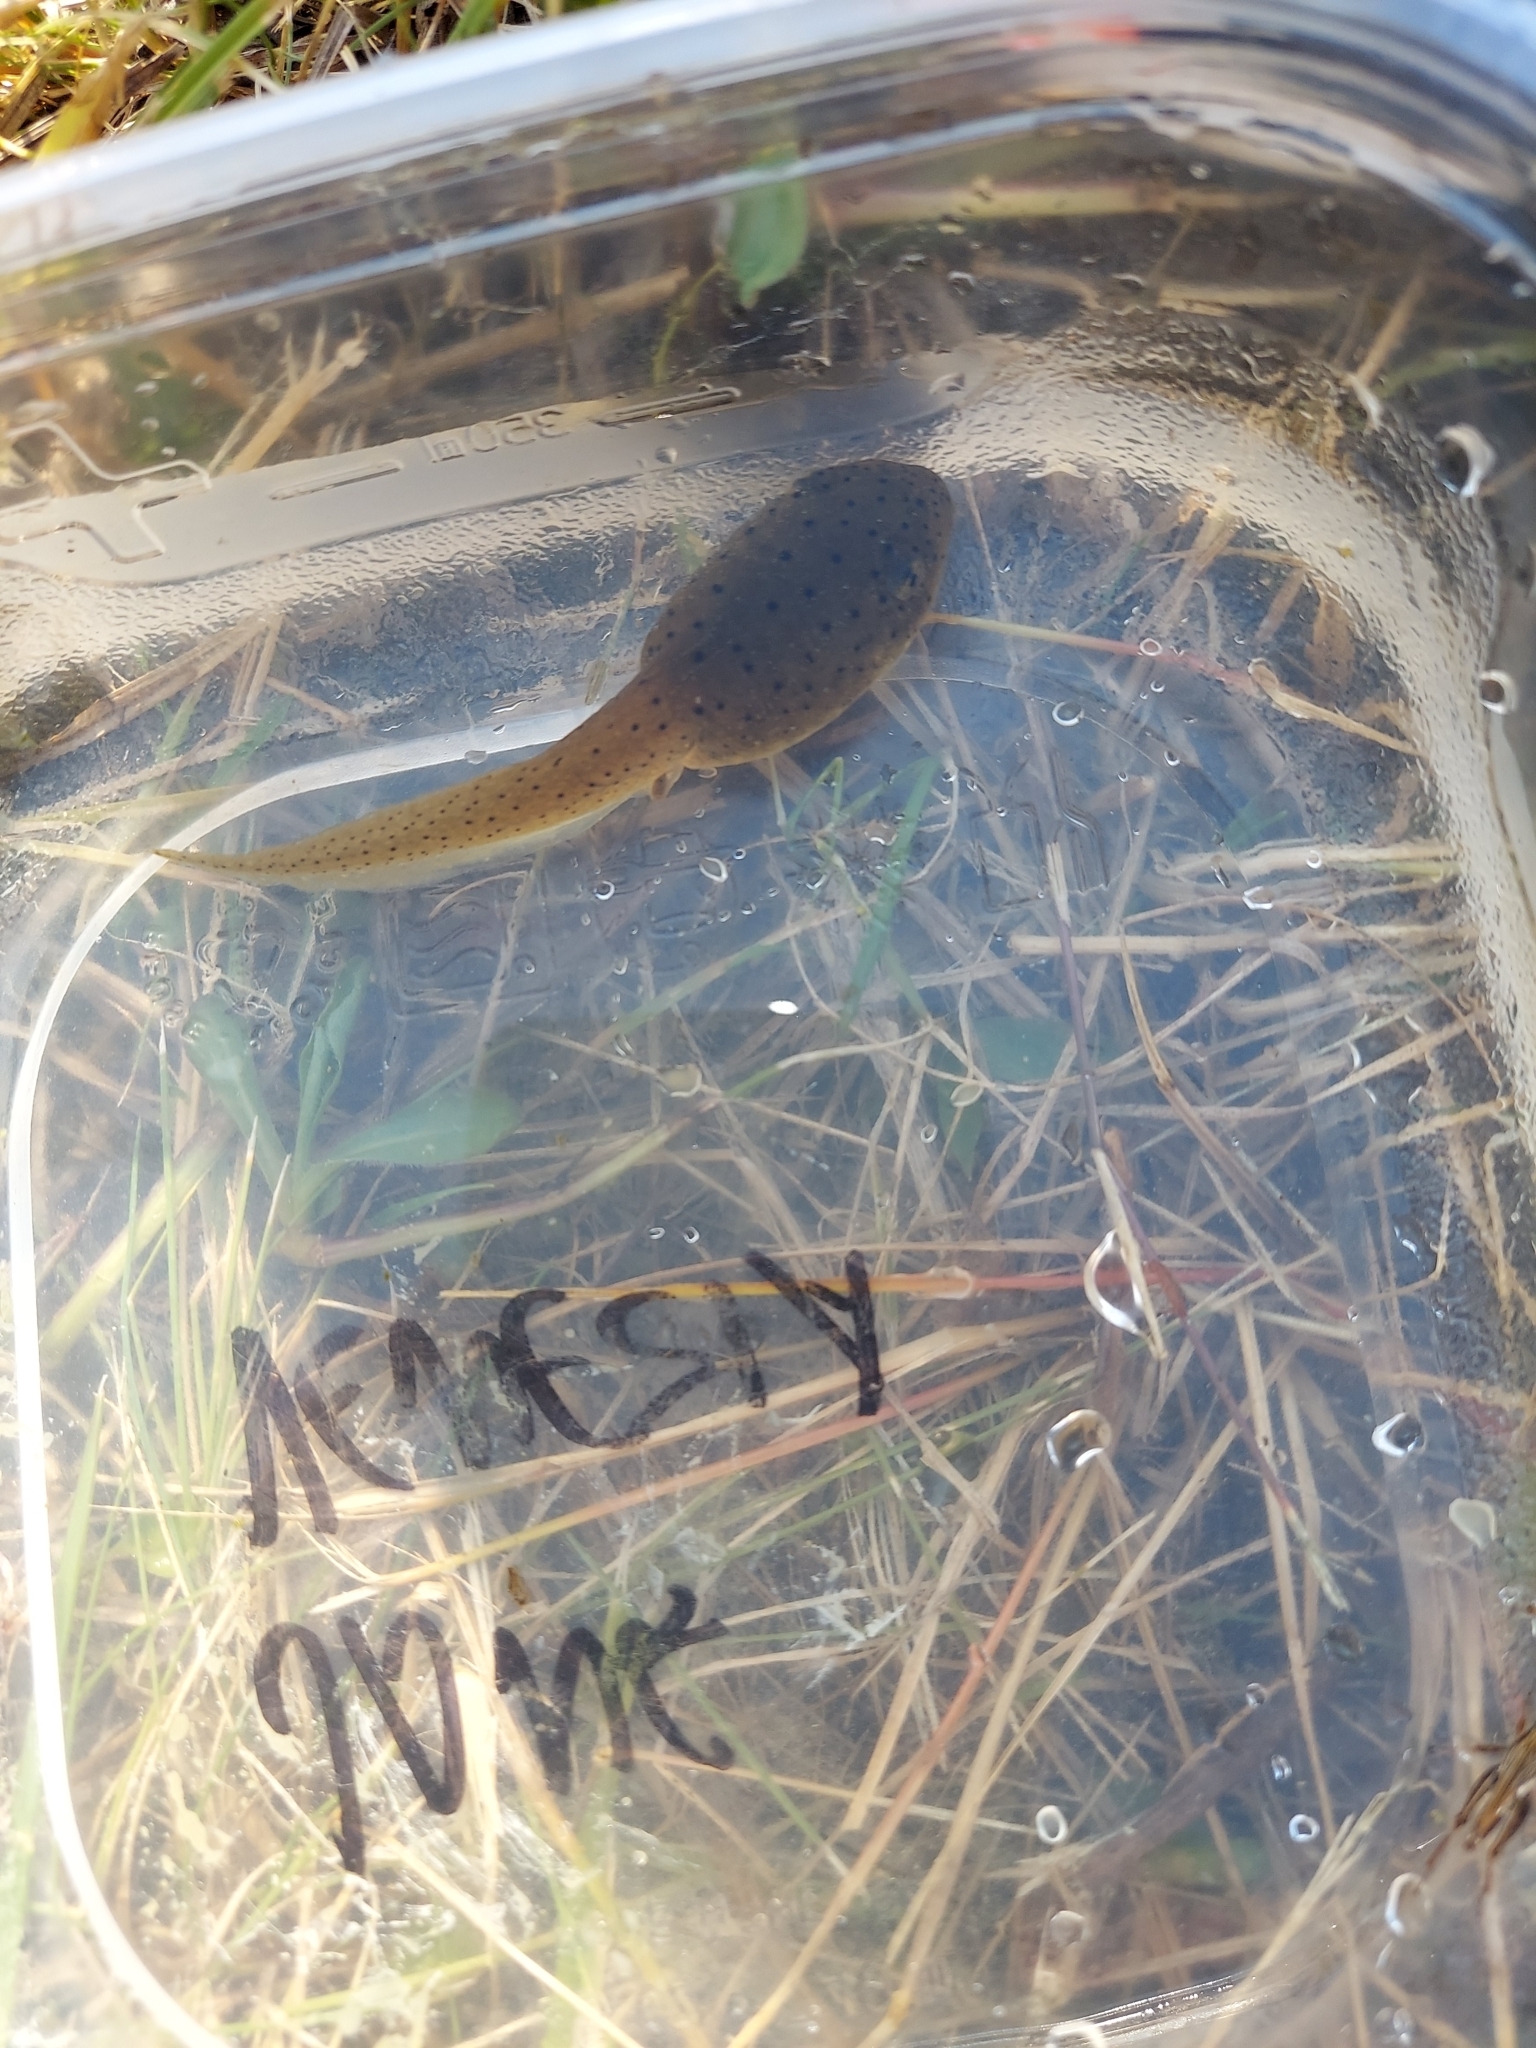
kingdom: Animalia
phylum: Chordata
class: Amphibia
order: Anura
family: Ranidae
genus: Lithobates
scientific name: Lithobates catesbeianus
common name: American bullfrog
